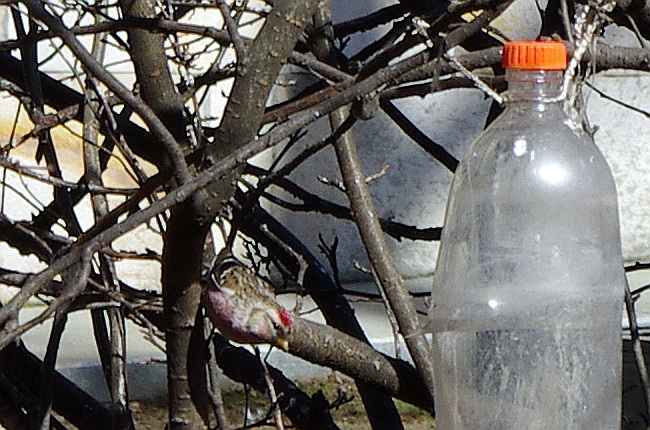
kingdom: Animalia
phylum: Chordata
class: Aves
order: Passeriformes
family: Fringillidae
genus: Acanthis
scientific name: Acanthis flammea
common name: Common redpoll
